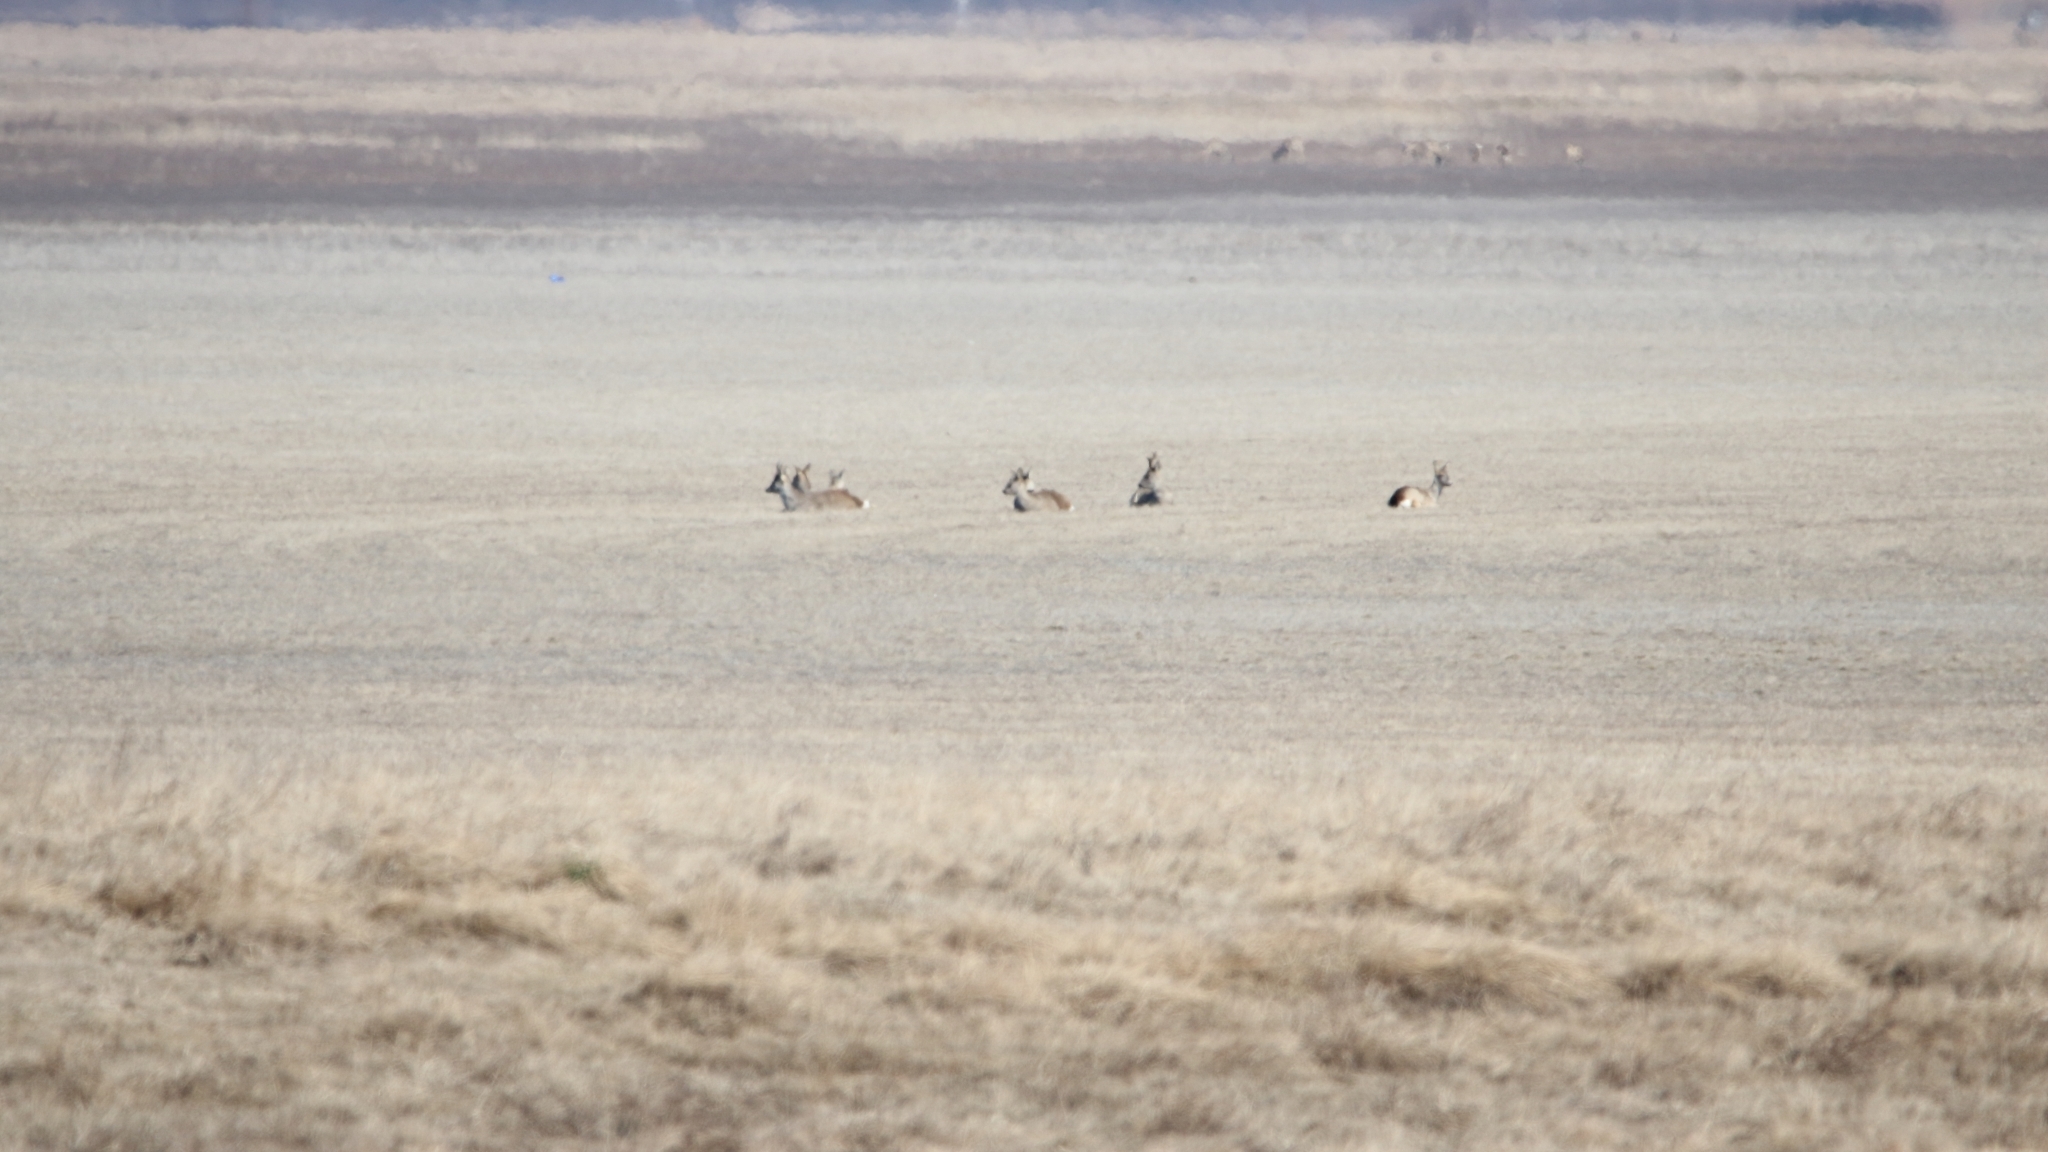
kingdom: Animalia
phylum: Chordata
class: Mammalia
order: Artiodactyla
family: Cervidae
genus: Capreolus
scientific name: Capreolus capreolus
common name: Western roe deer
